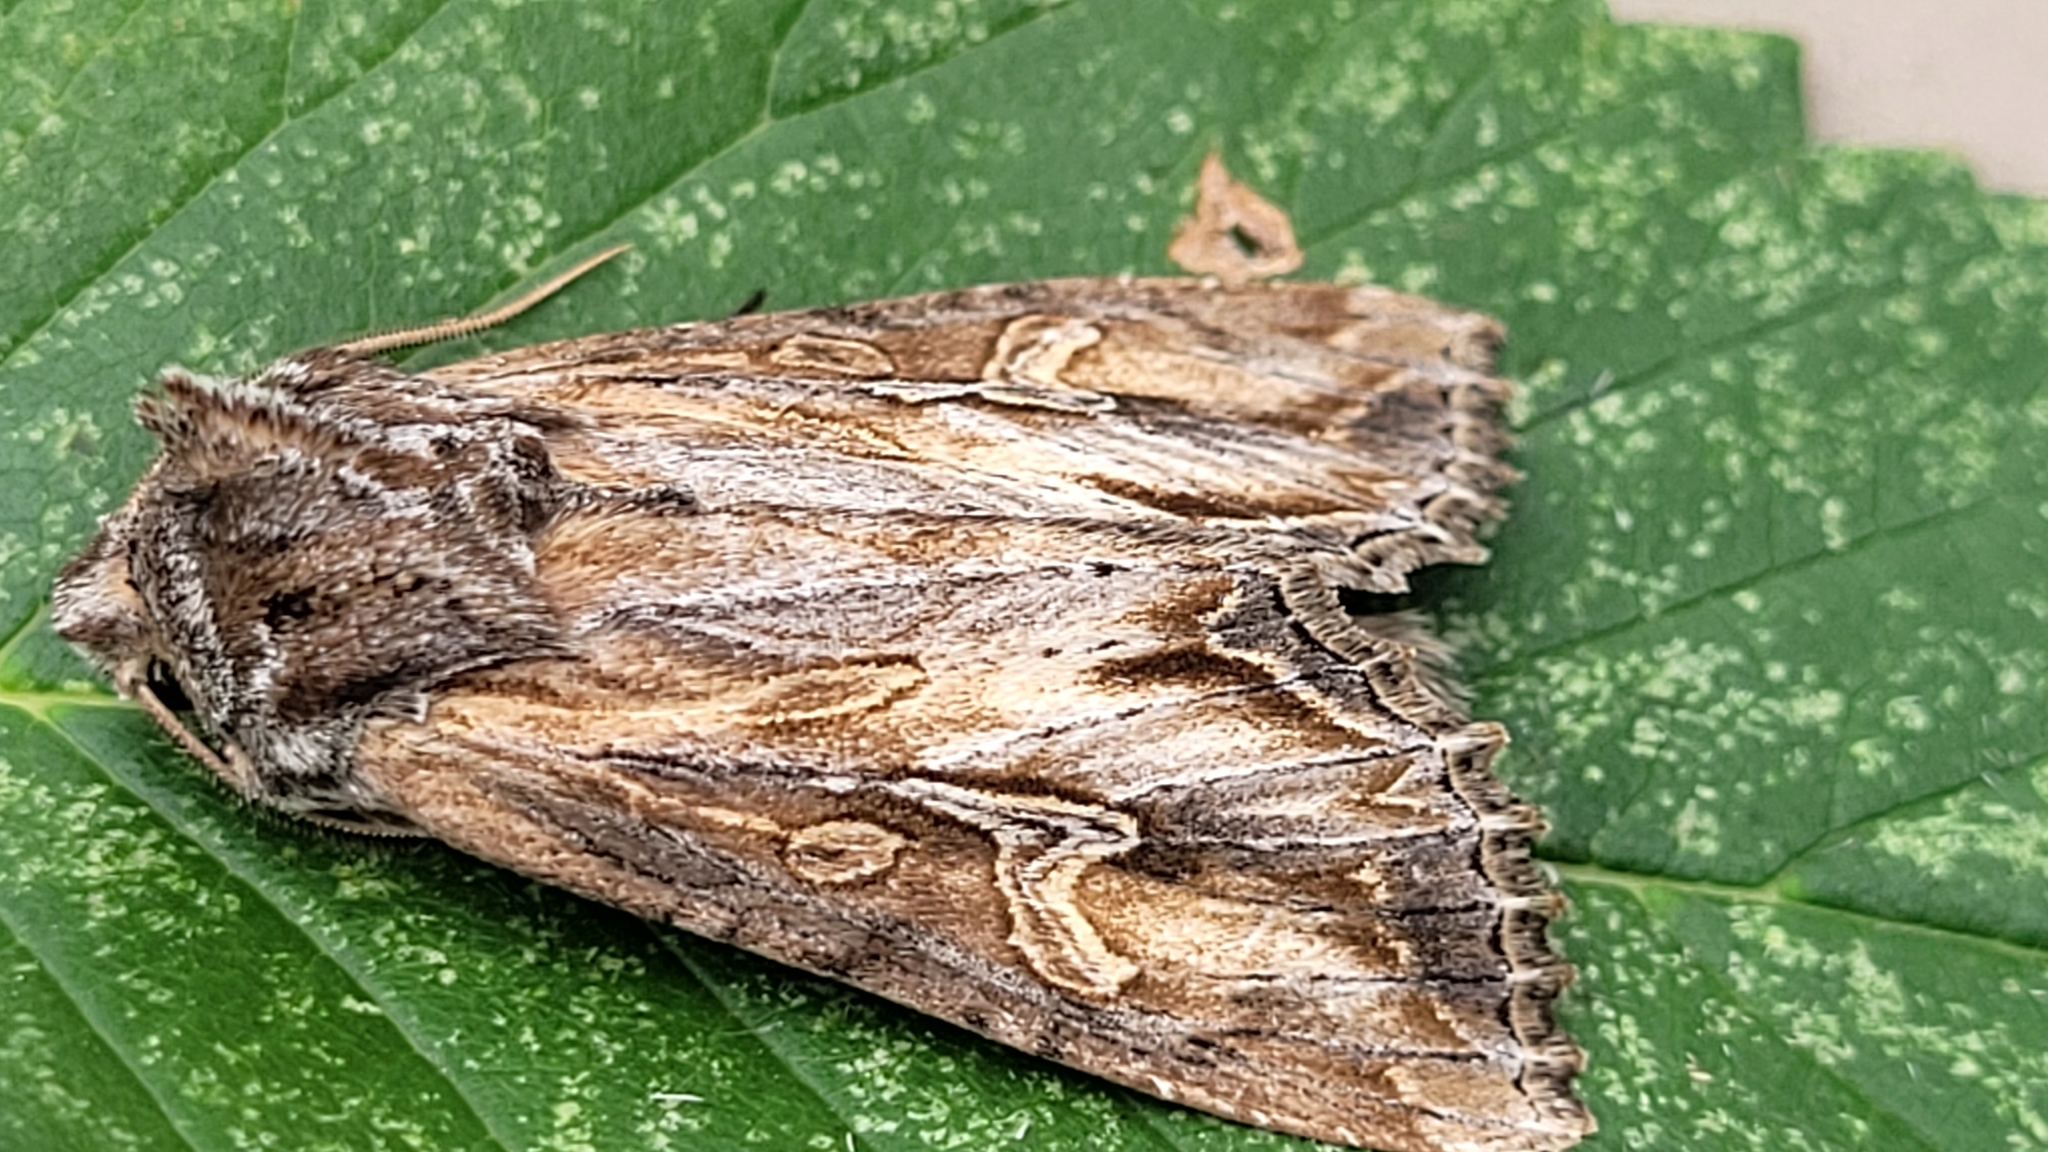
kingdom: Animalia
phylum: Arthropoda
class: Insecta
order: Lepidoptera
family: Noctuidae
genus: Polia
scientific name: Polia nugatis
